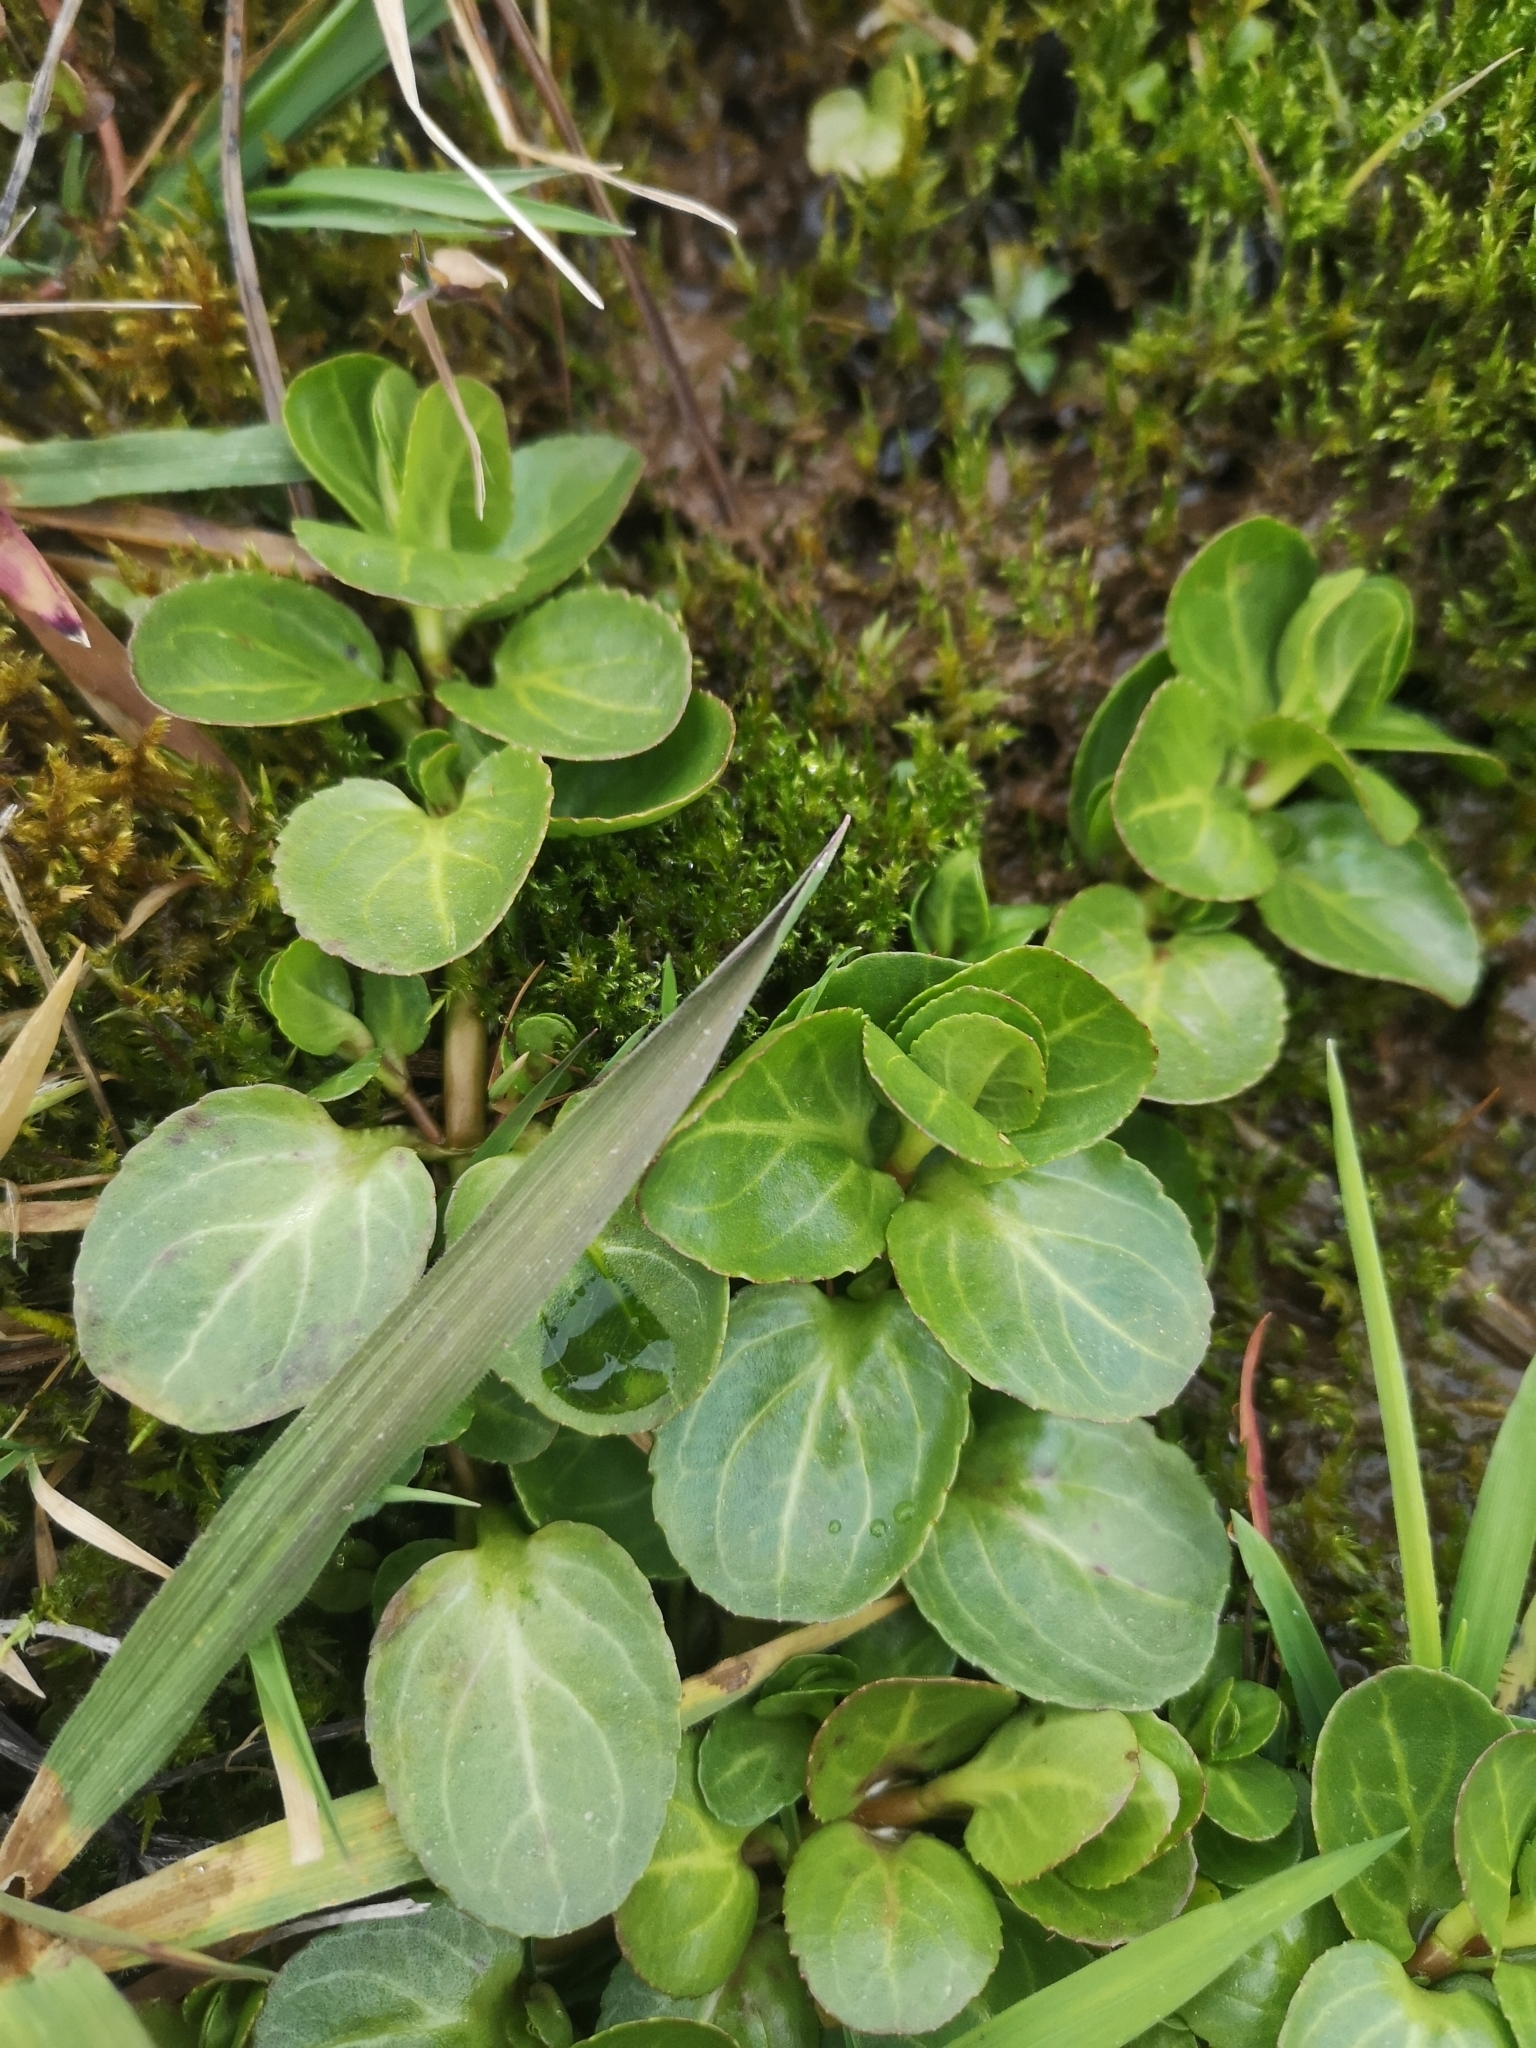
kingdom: Plantae
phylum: Tracheophyta
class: Magnoliopsida
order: Lamiales
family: Plantaginaceae
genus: Veronica
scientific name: Veronica beccabunga
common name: Brooklime
